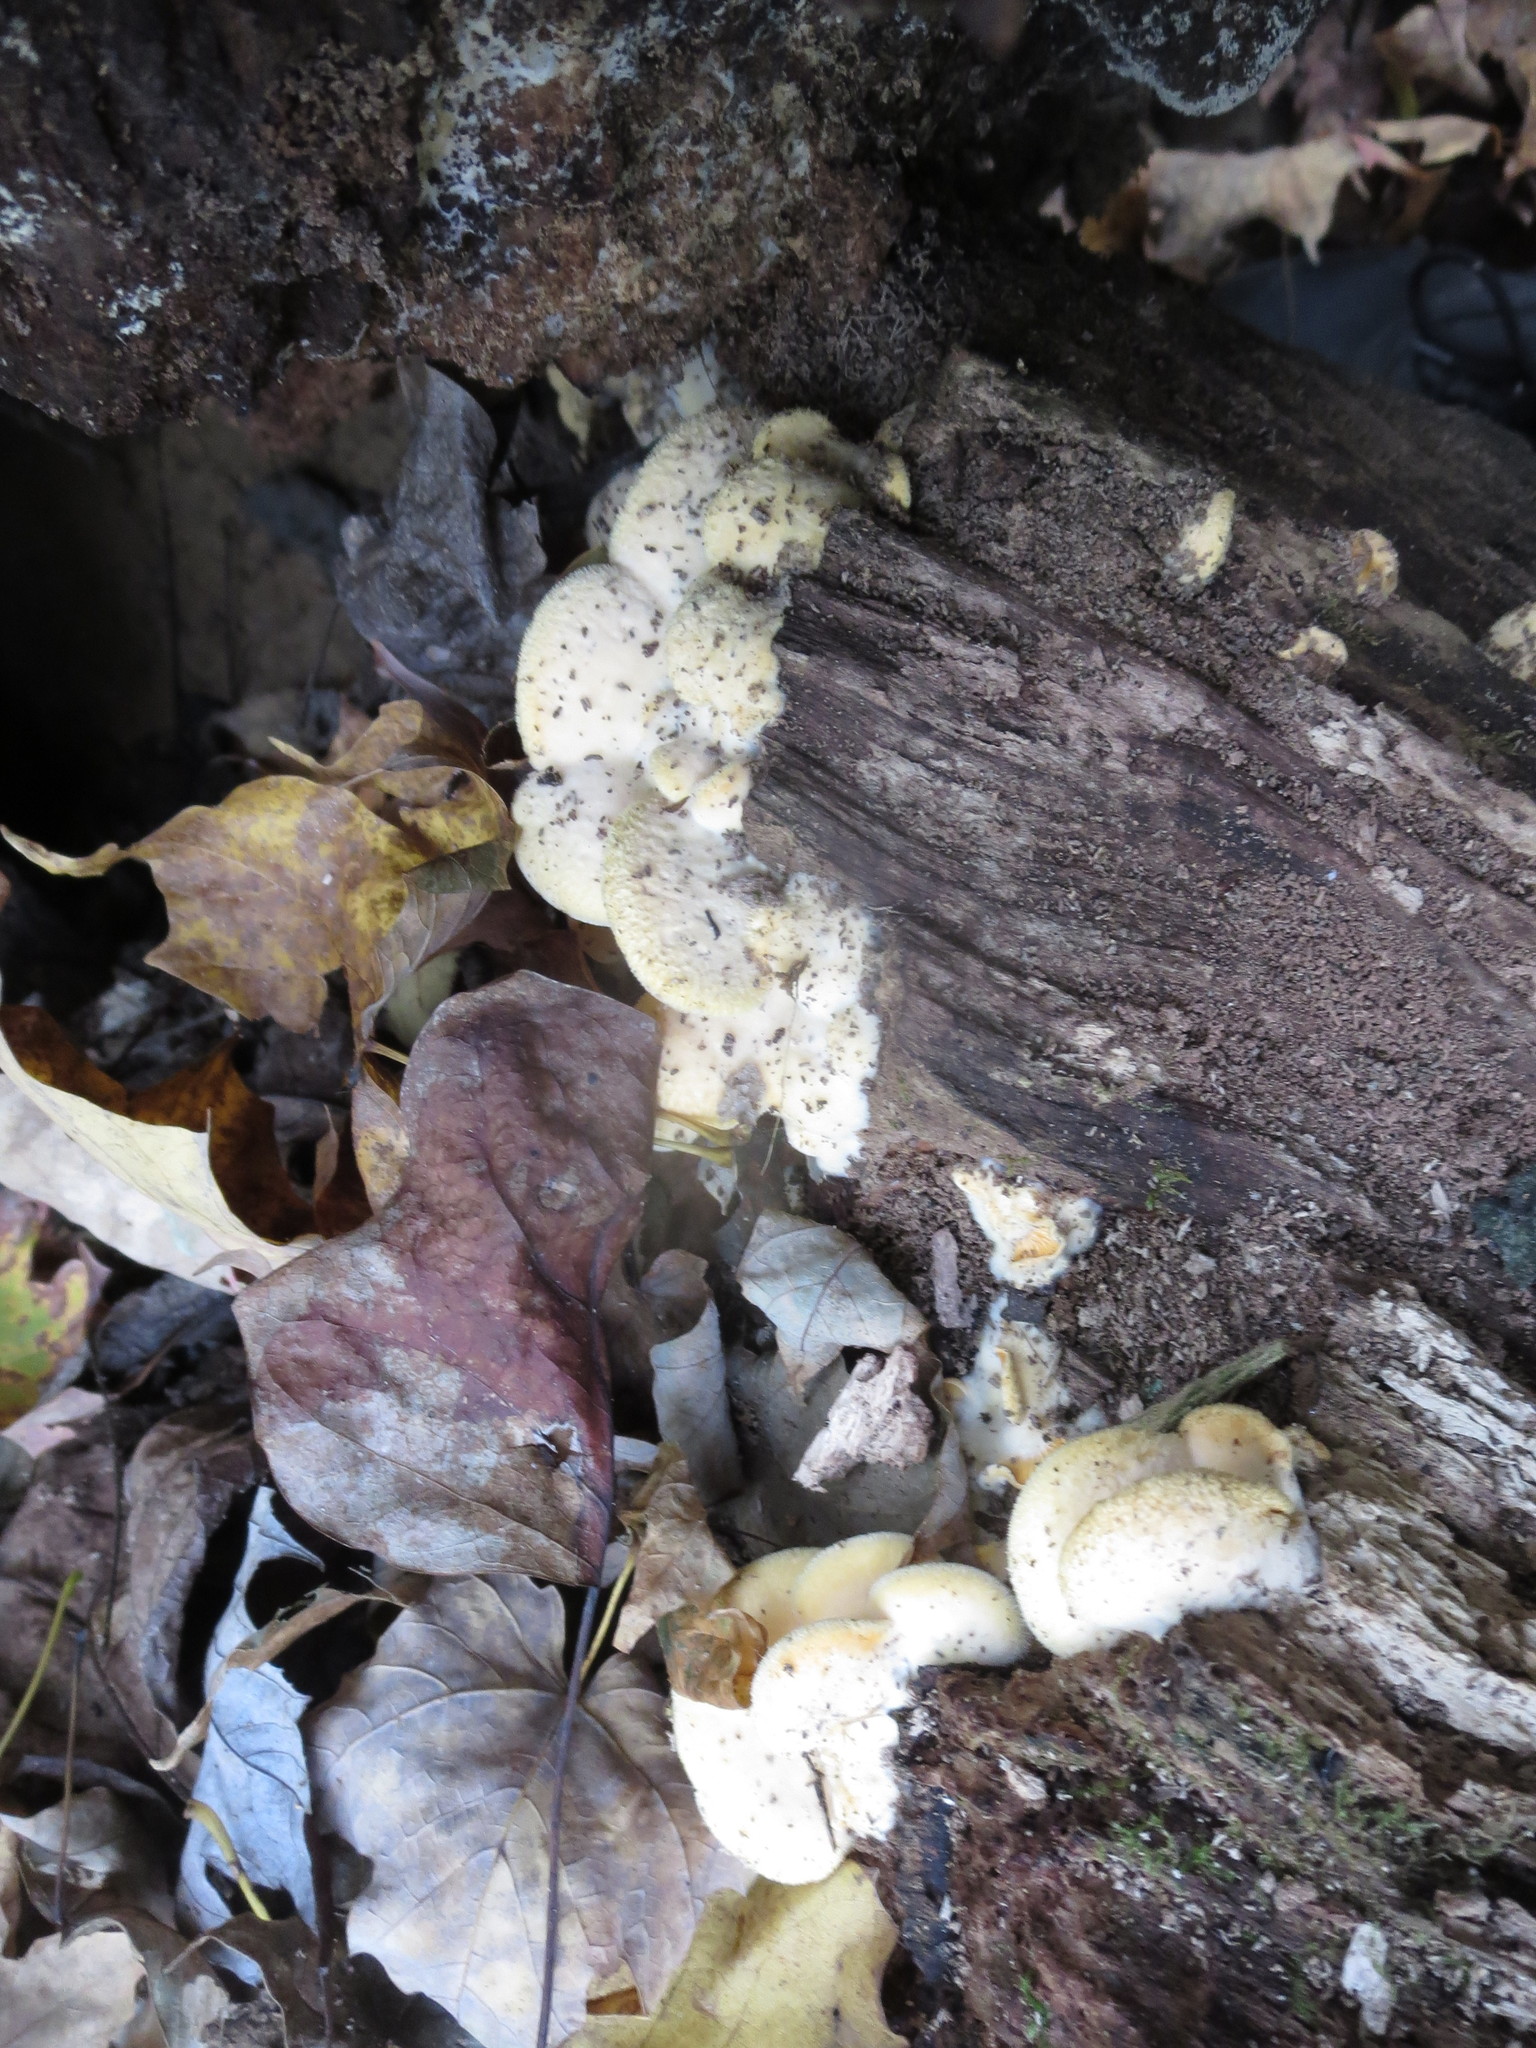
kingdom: Fungi
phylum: Basidiomycota
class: Agaricomycetes
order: Agaricales
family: Phyllotopsidaceae
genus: Phyllotopsis
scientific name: Phyllotopsis nidulans
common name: Orange mock oyster
